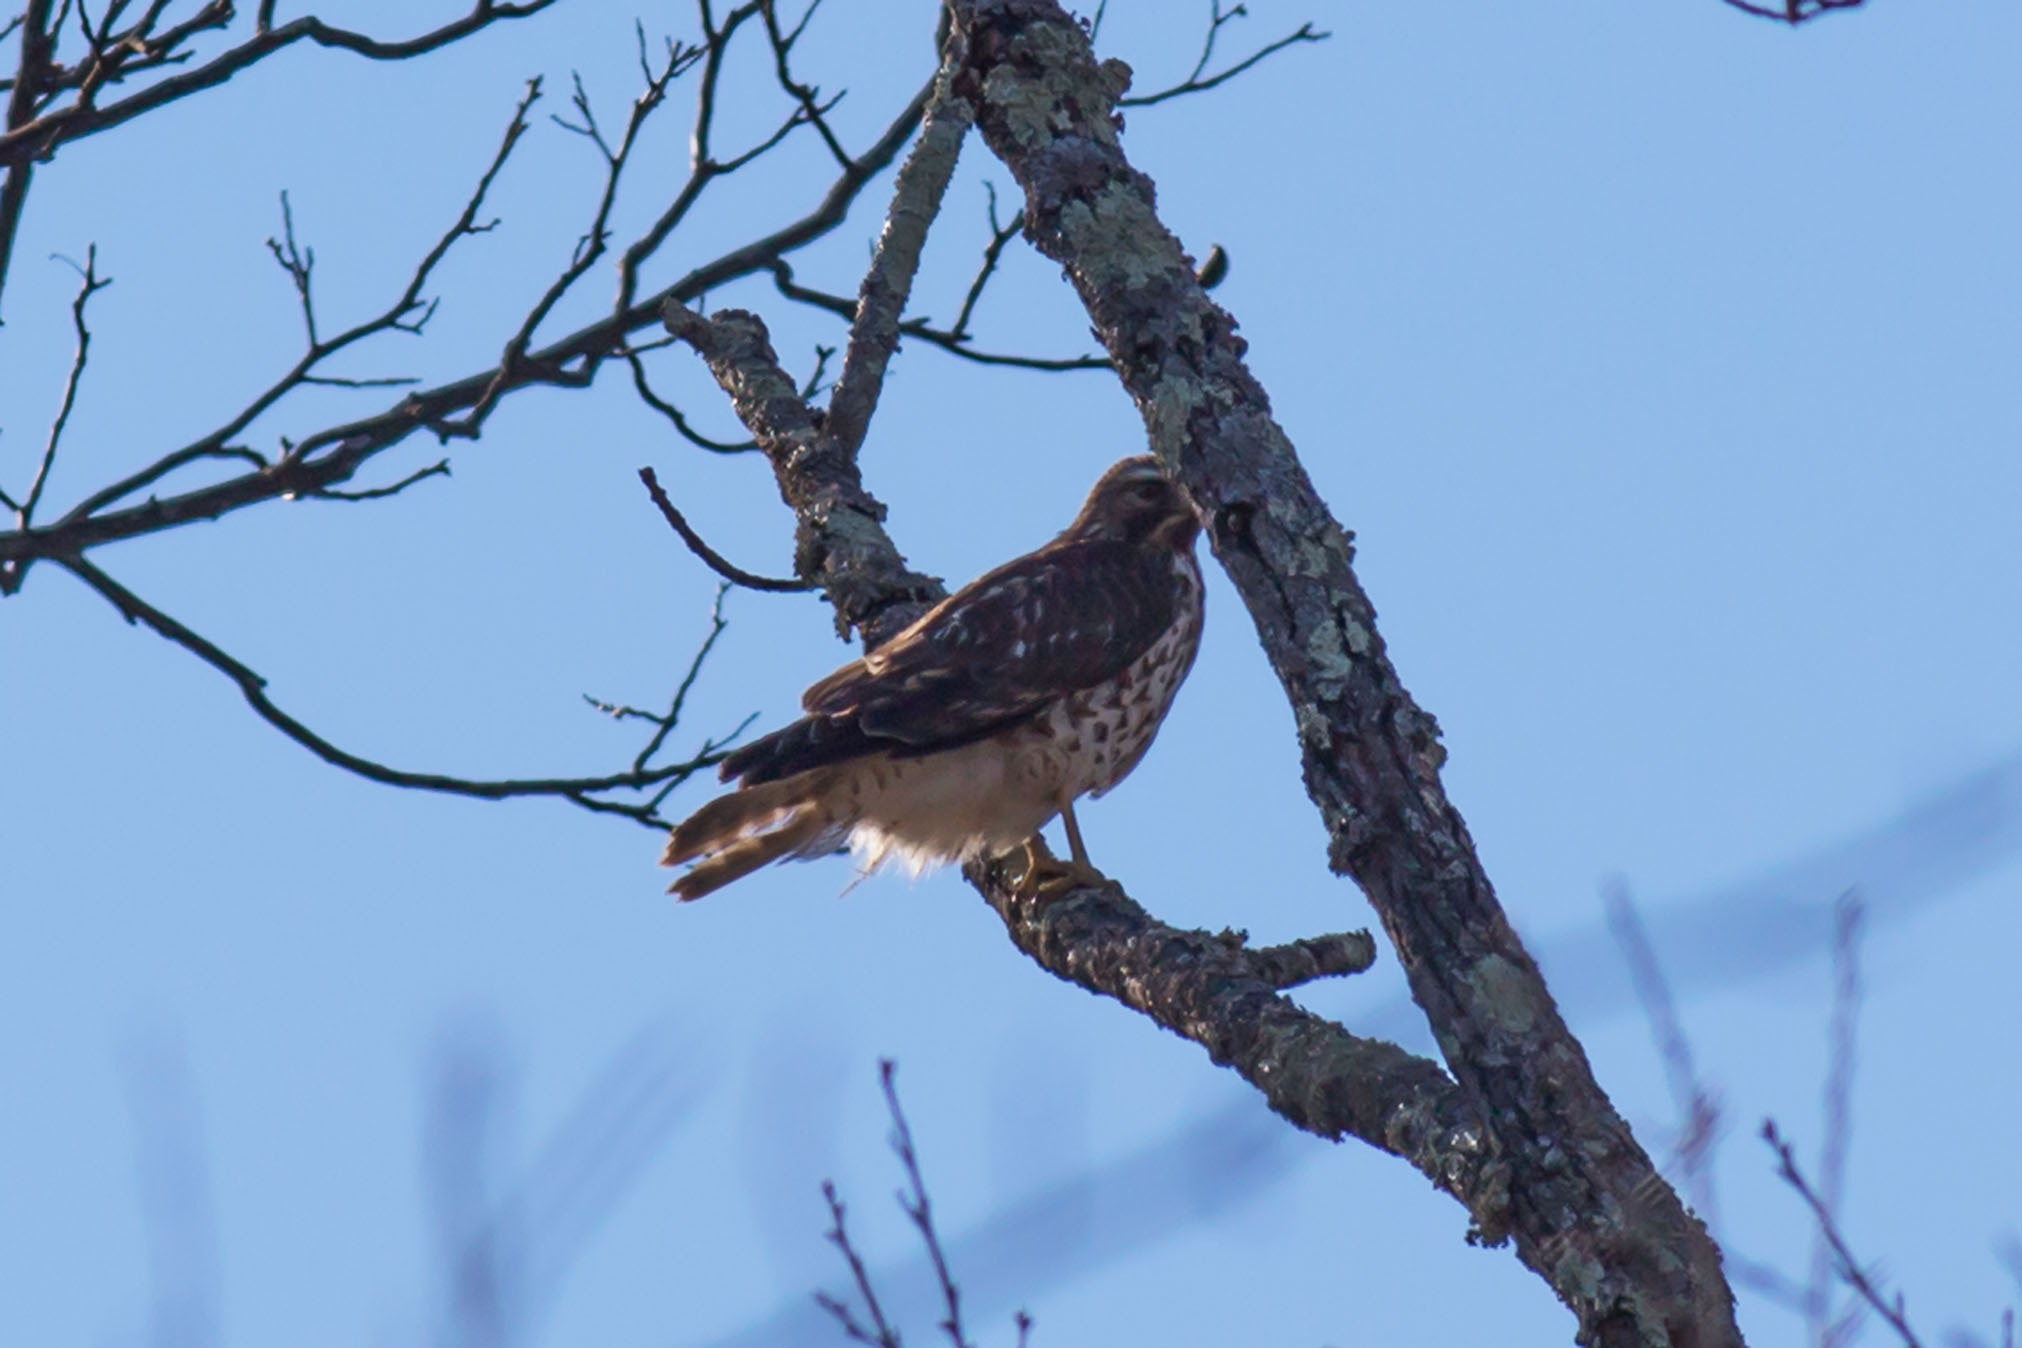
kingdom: Animalia
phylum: Chordata
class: Aves
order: Accipitriformes
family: Accipitridae
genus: Buteo
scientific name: Buteo lineatus
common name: Red-shouldered hawk
